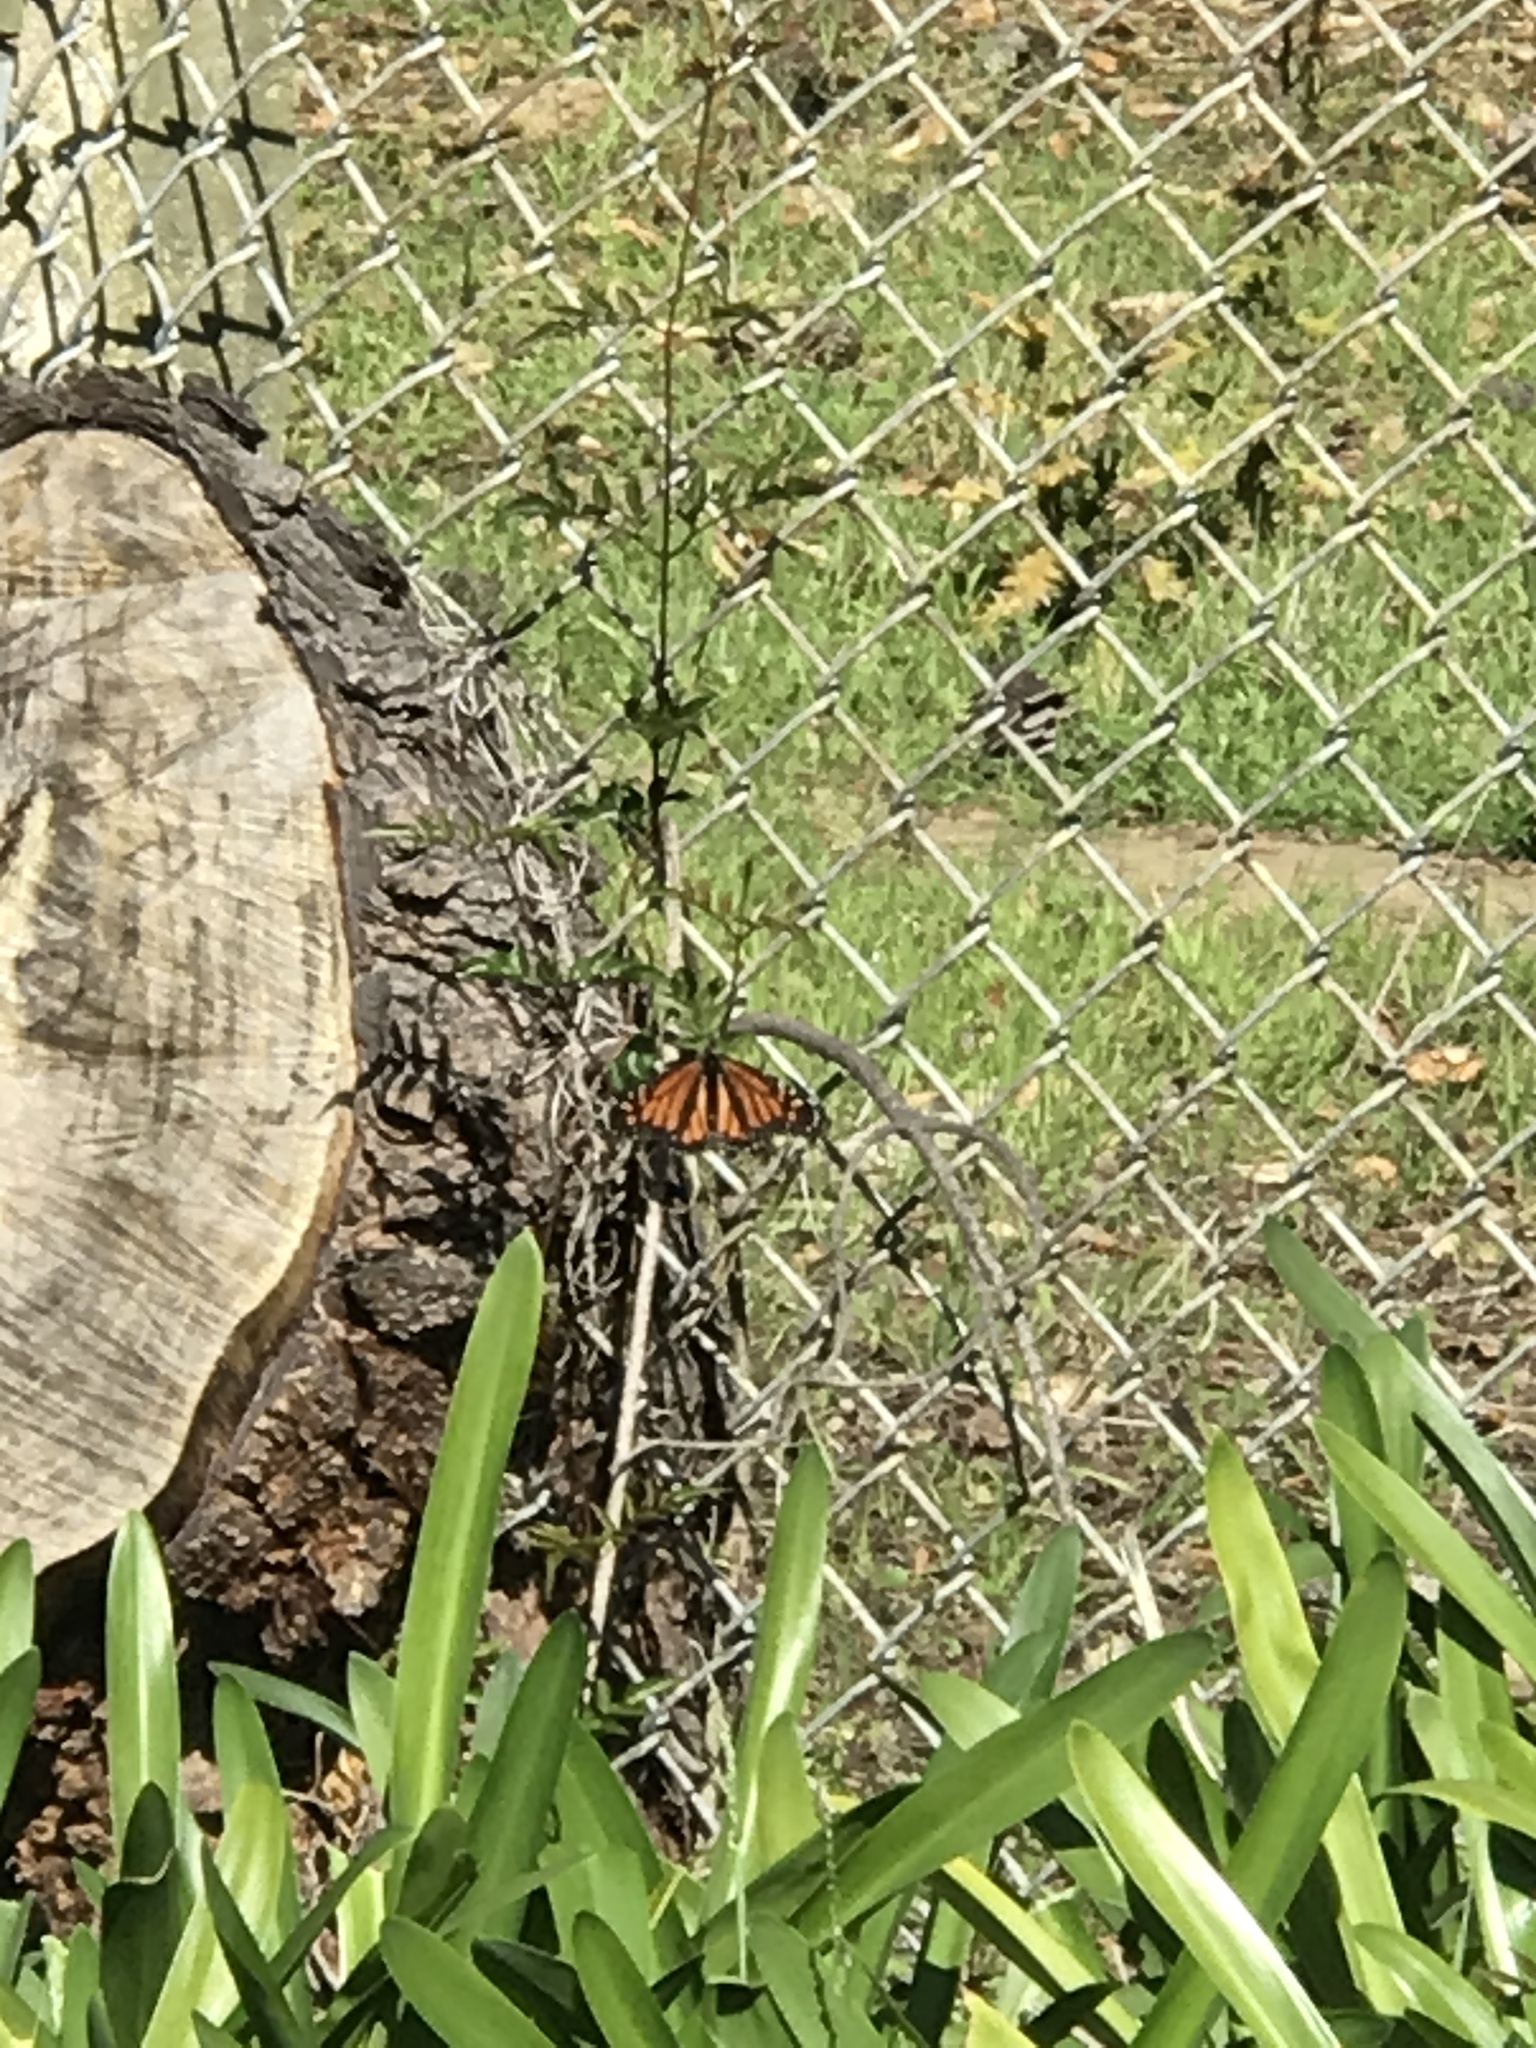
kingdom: Animalia
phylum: Arthropoda
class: Insecta
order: Lepidoptera
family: Nymphalidae
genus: Danaus
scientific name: Danaus plexippus
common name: Monarch
